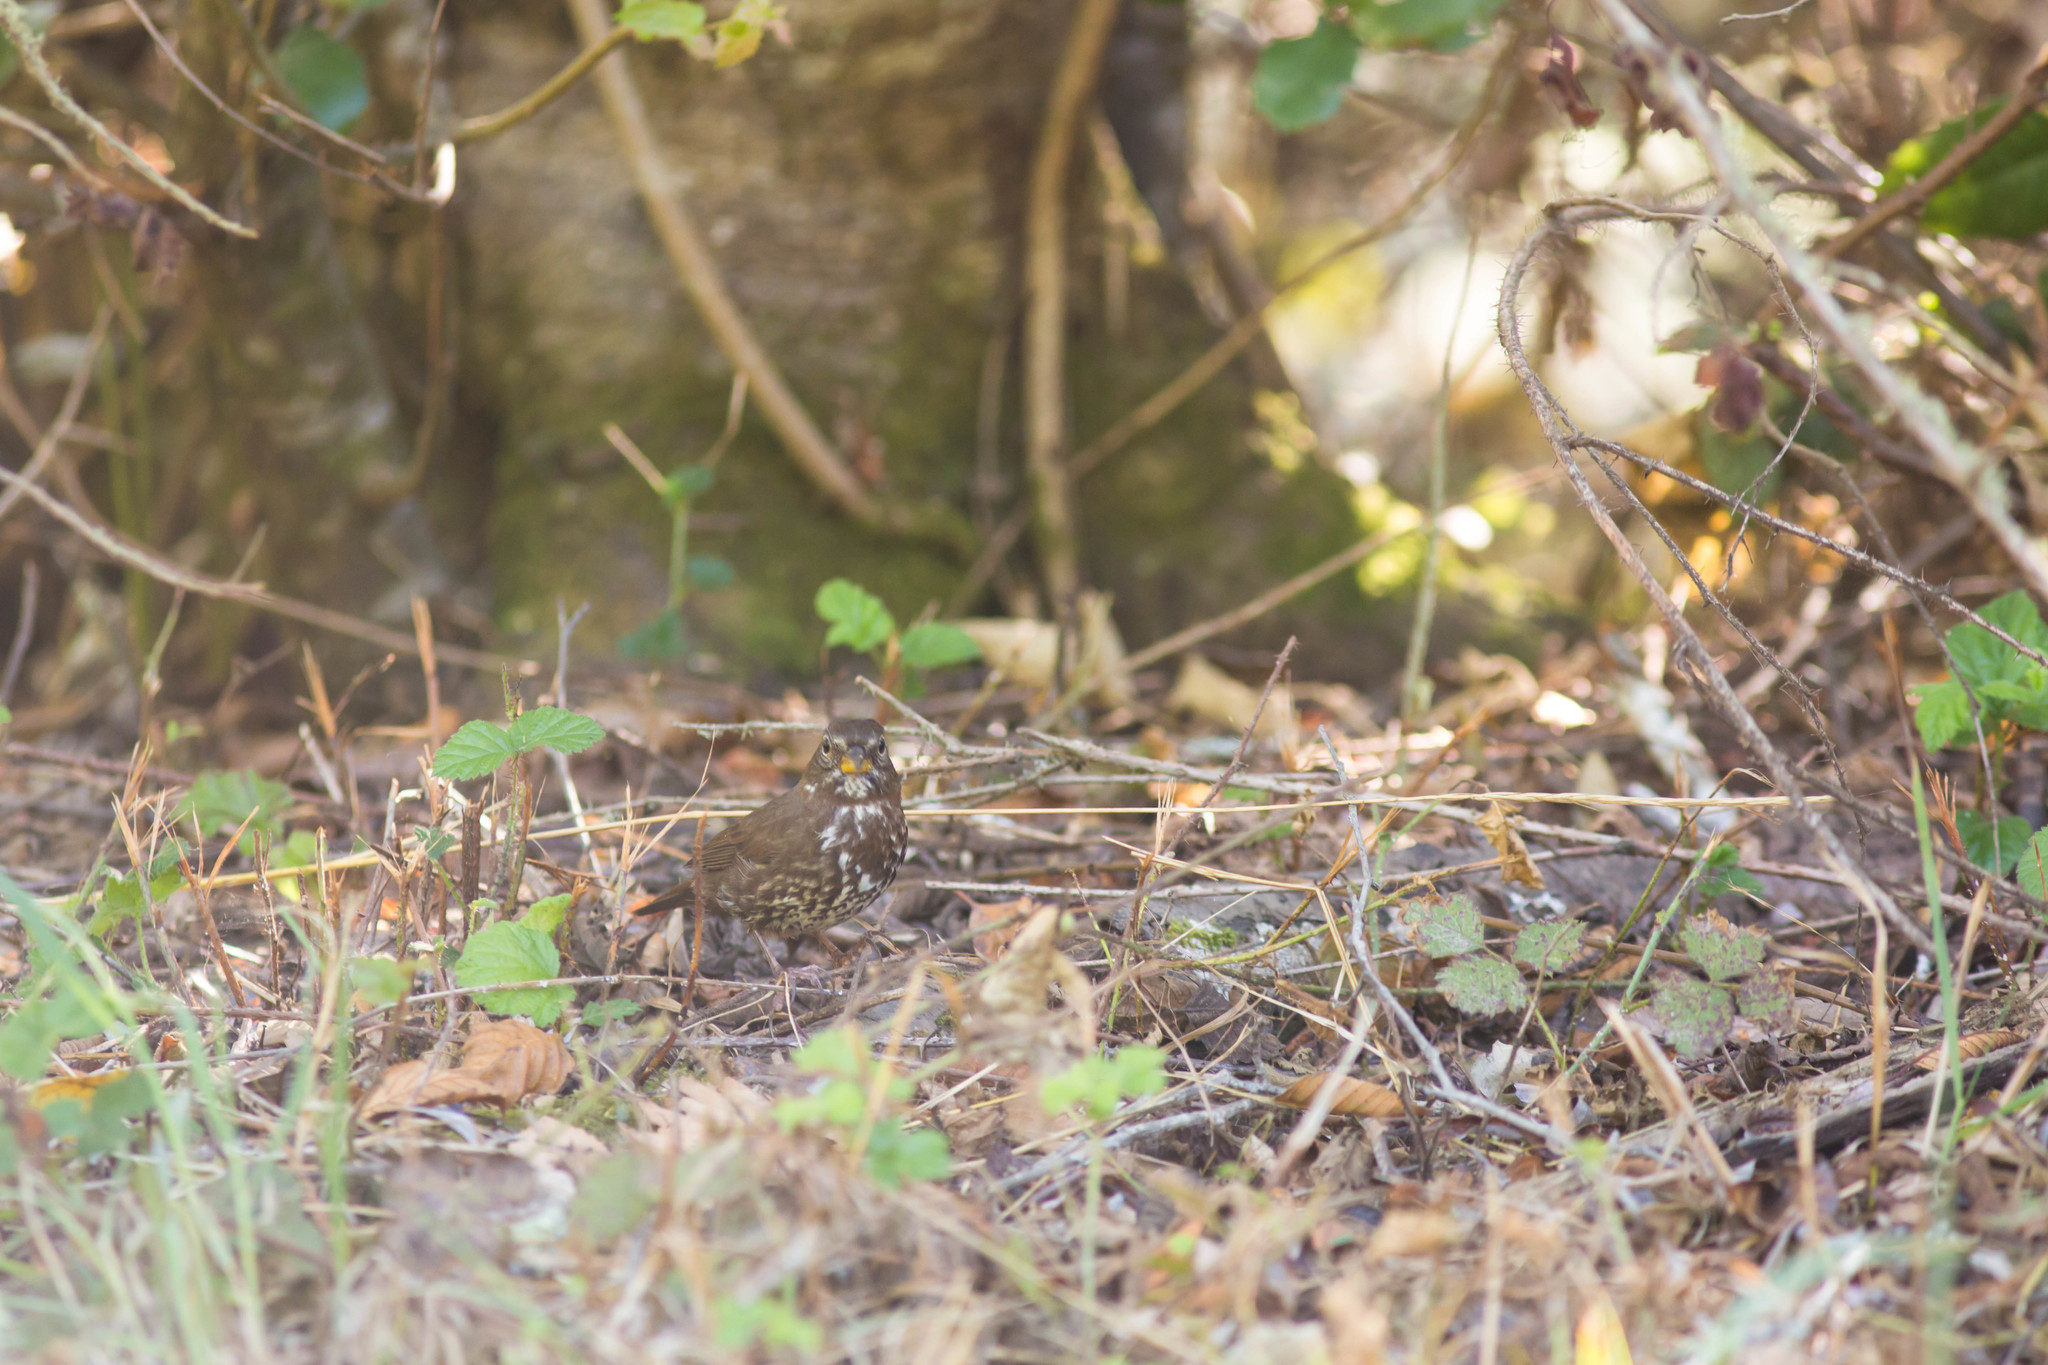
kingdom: Animalia
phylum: Chordata
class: Aves
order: Passeriformes
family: Passerellidae
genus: Passerella
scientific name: Passerella iliaca
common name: Fox sparrow
